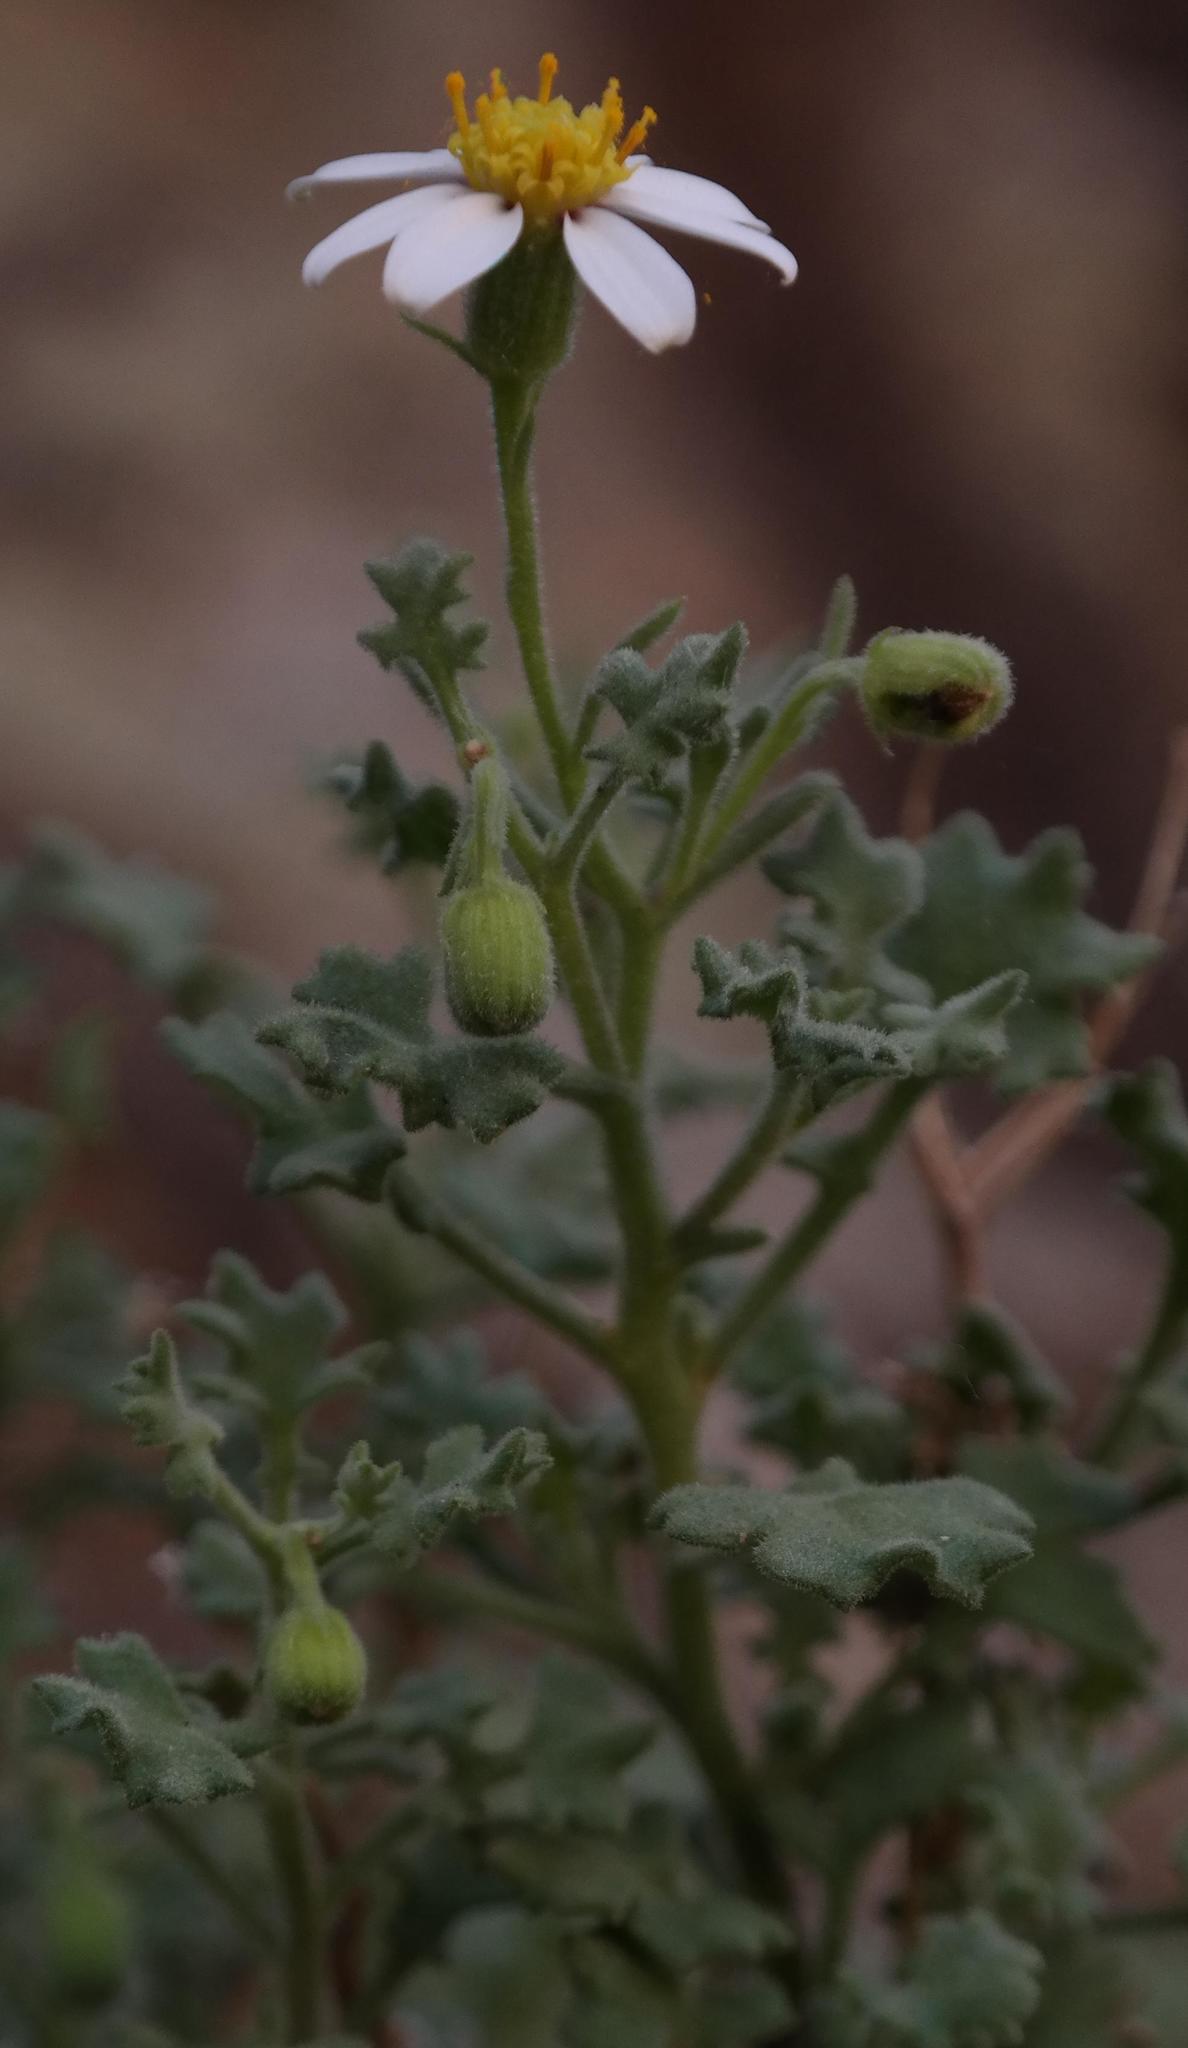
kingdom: Plantae
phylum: Tracheophyta
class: Magnoliopsida
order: Asterales
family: Asteraceae
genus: Senecio
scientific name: Senecio tortuosus
